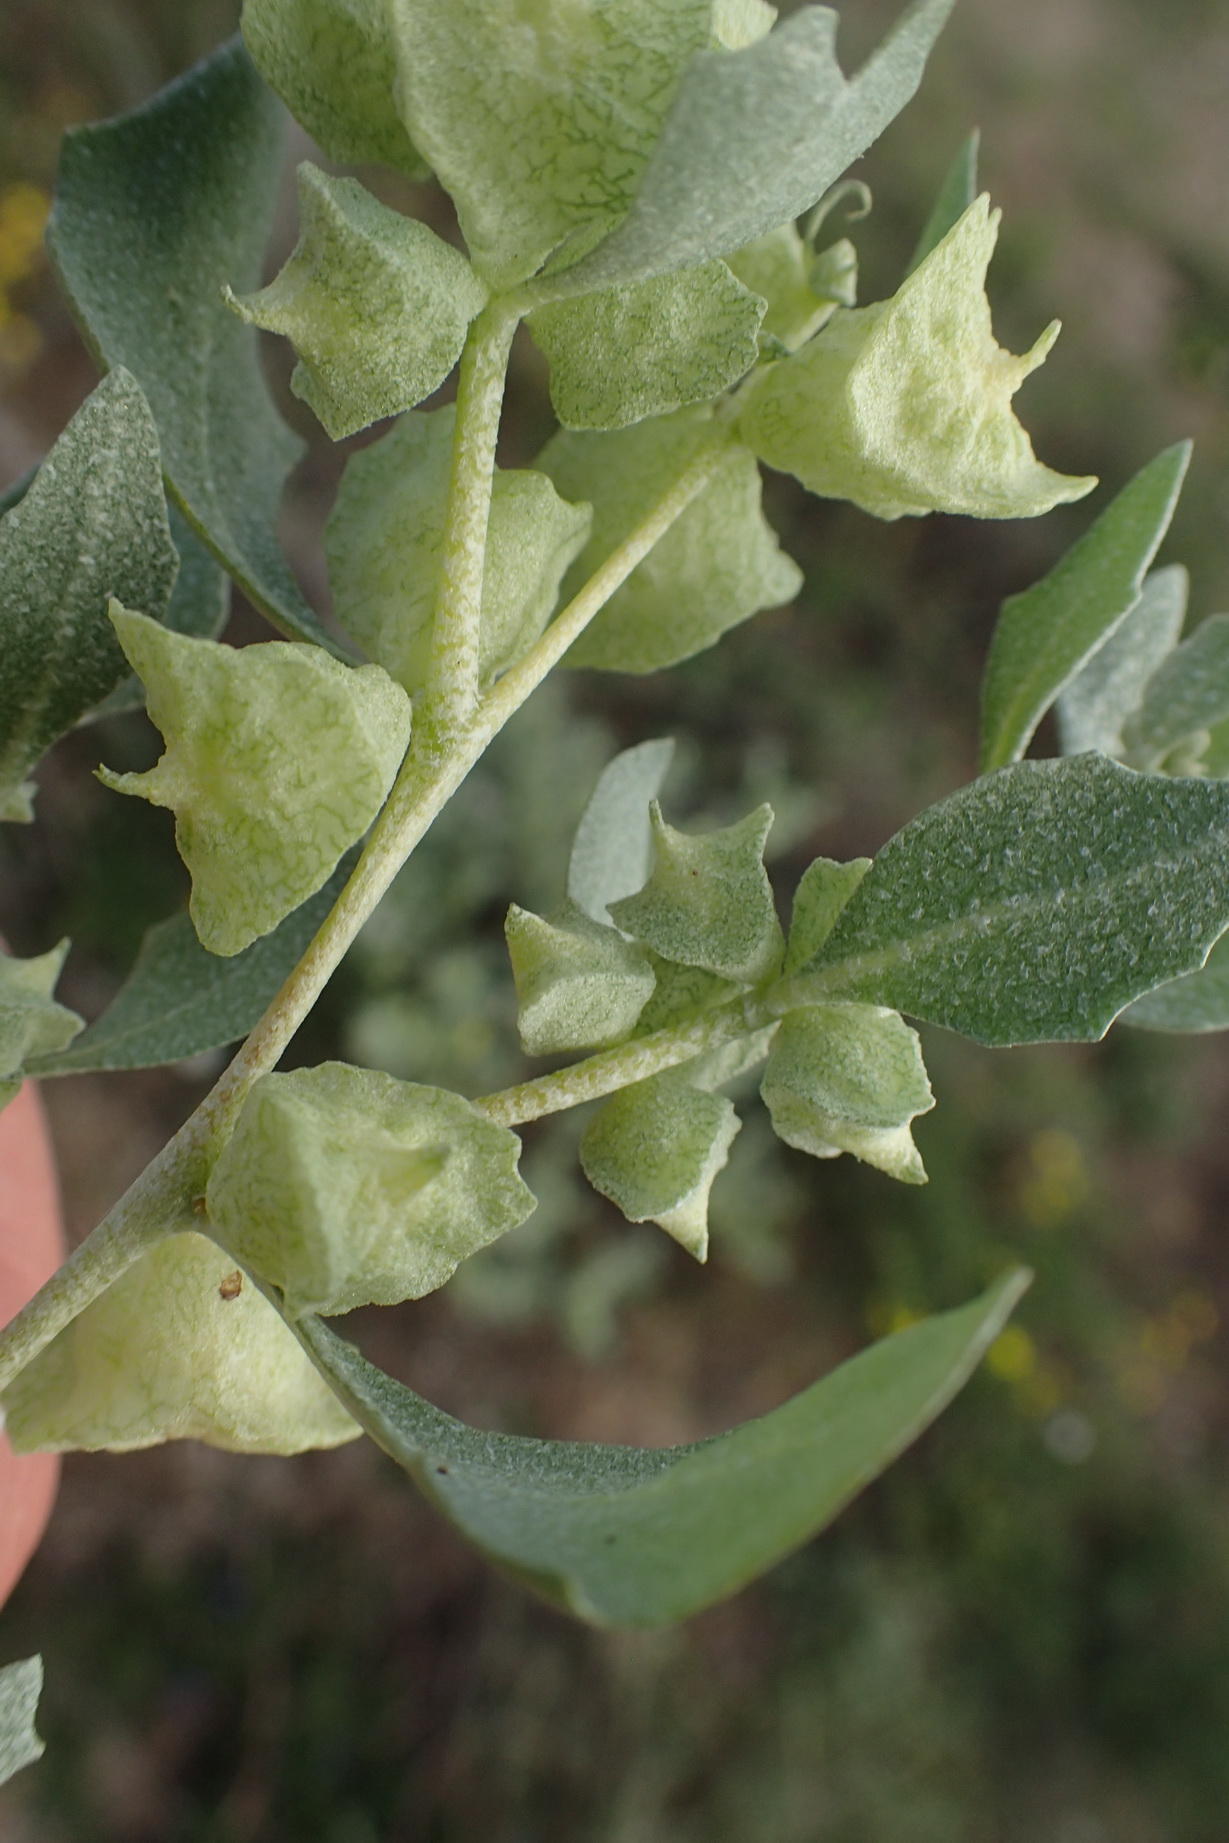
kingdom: Plantae
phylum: Tracheophyta
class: Magnoliopsida
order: Caryophyllales
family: Amaranthaceae
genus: Atriplex
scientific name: Atriplex lindleyi
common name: Lindley's saltbush
